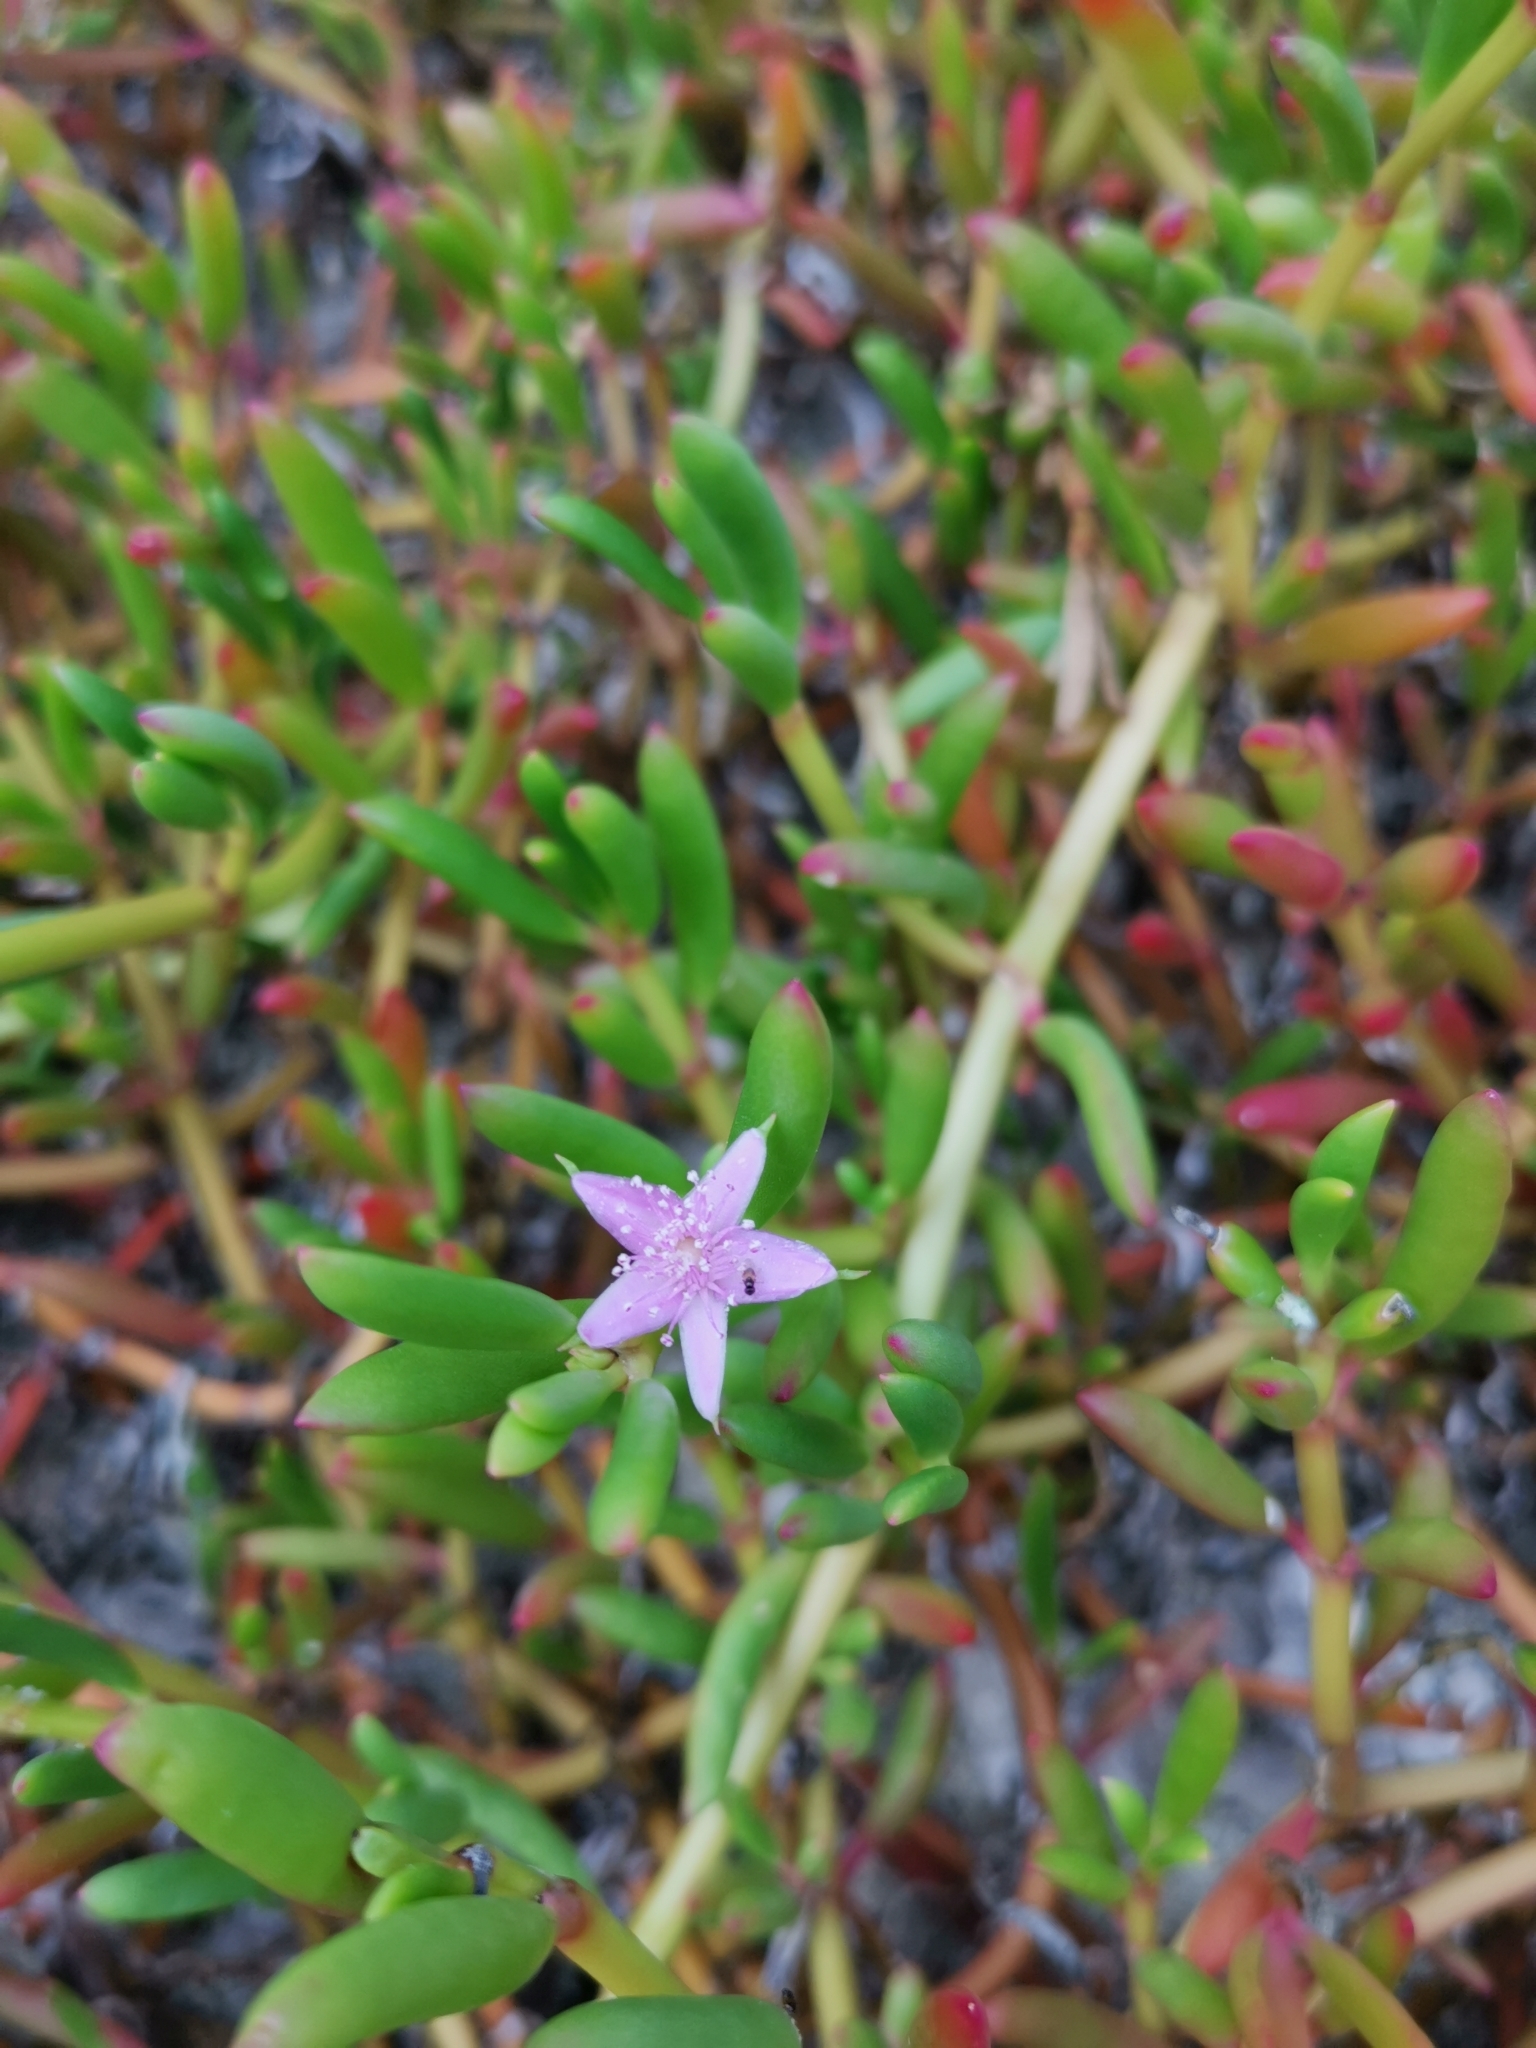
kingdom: Plantae
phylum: Tracheophyta
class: Magnoliopsida
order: Caryophyllales
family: Aizoaceae
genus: Sesuvium
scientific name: Sesuvium portulacastrum
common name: Sea-purslane
